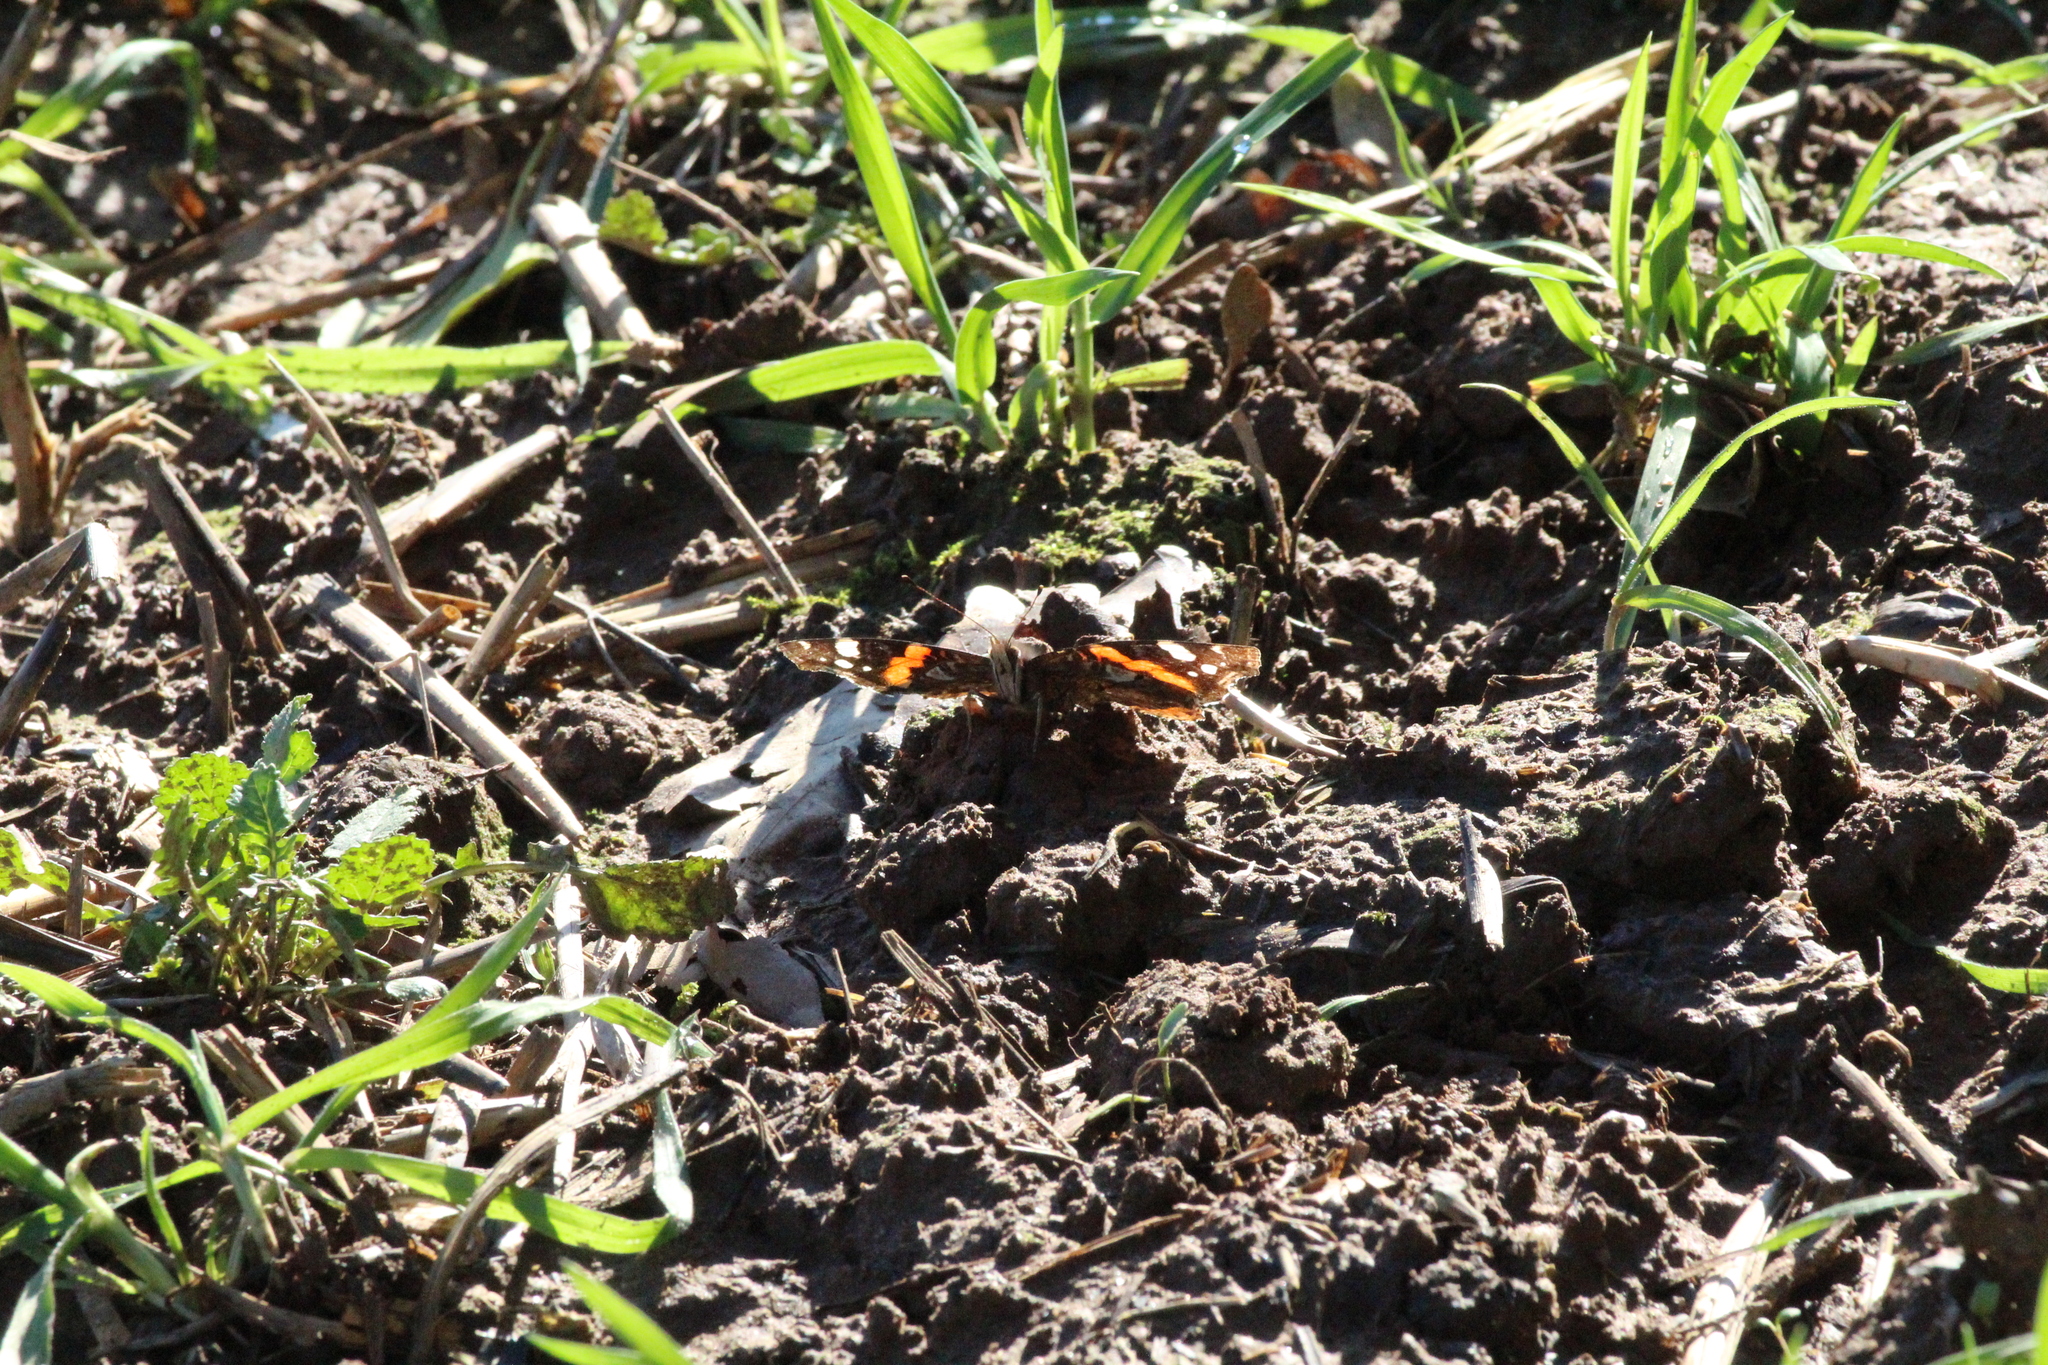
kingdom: Animalia
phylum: Arthropoda
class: Insecta
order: Lepidoptera
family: Nymphalidae
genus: Vanessa
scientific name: Vanessa atalanta
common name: Red admiral
